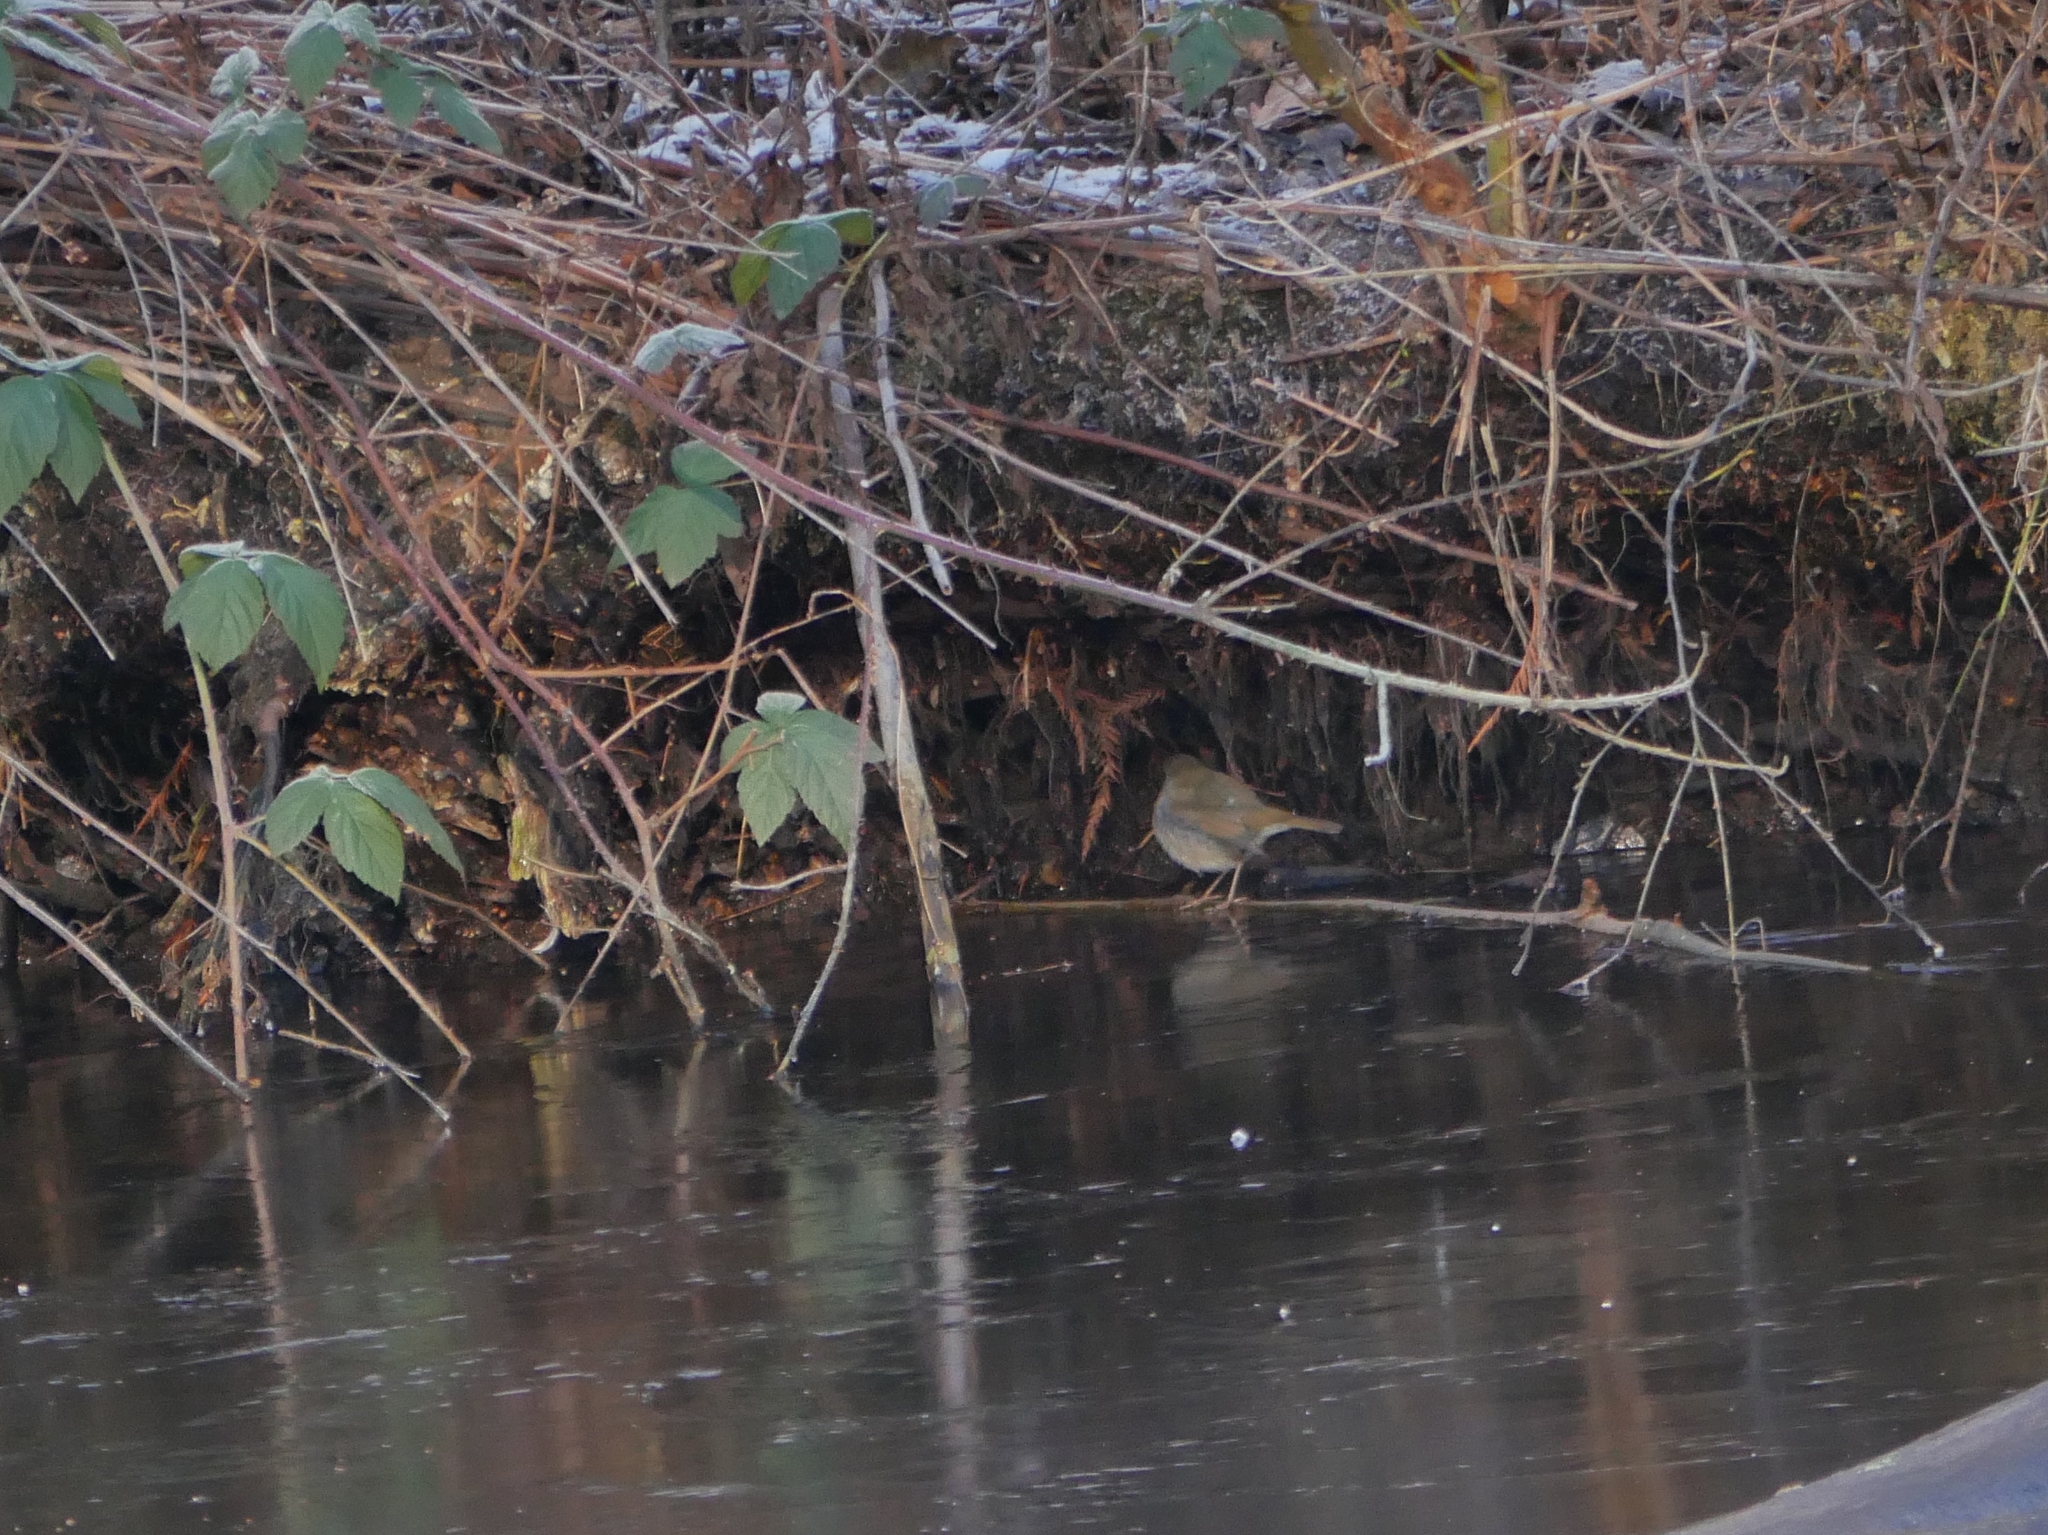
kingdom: Animalia
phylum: Chordata
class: Aves
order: Passeriformes
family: Muscicapidae
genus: Erithacus
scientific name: Erithacus rubecula
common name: European robin
